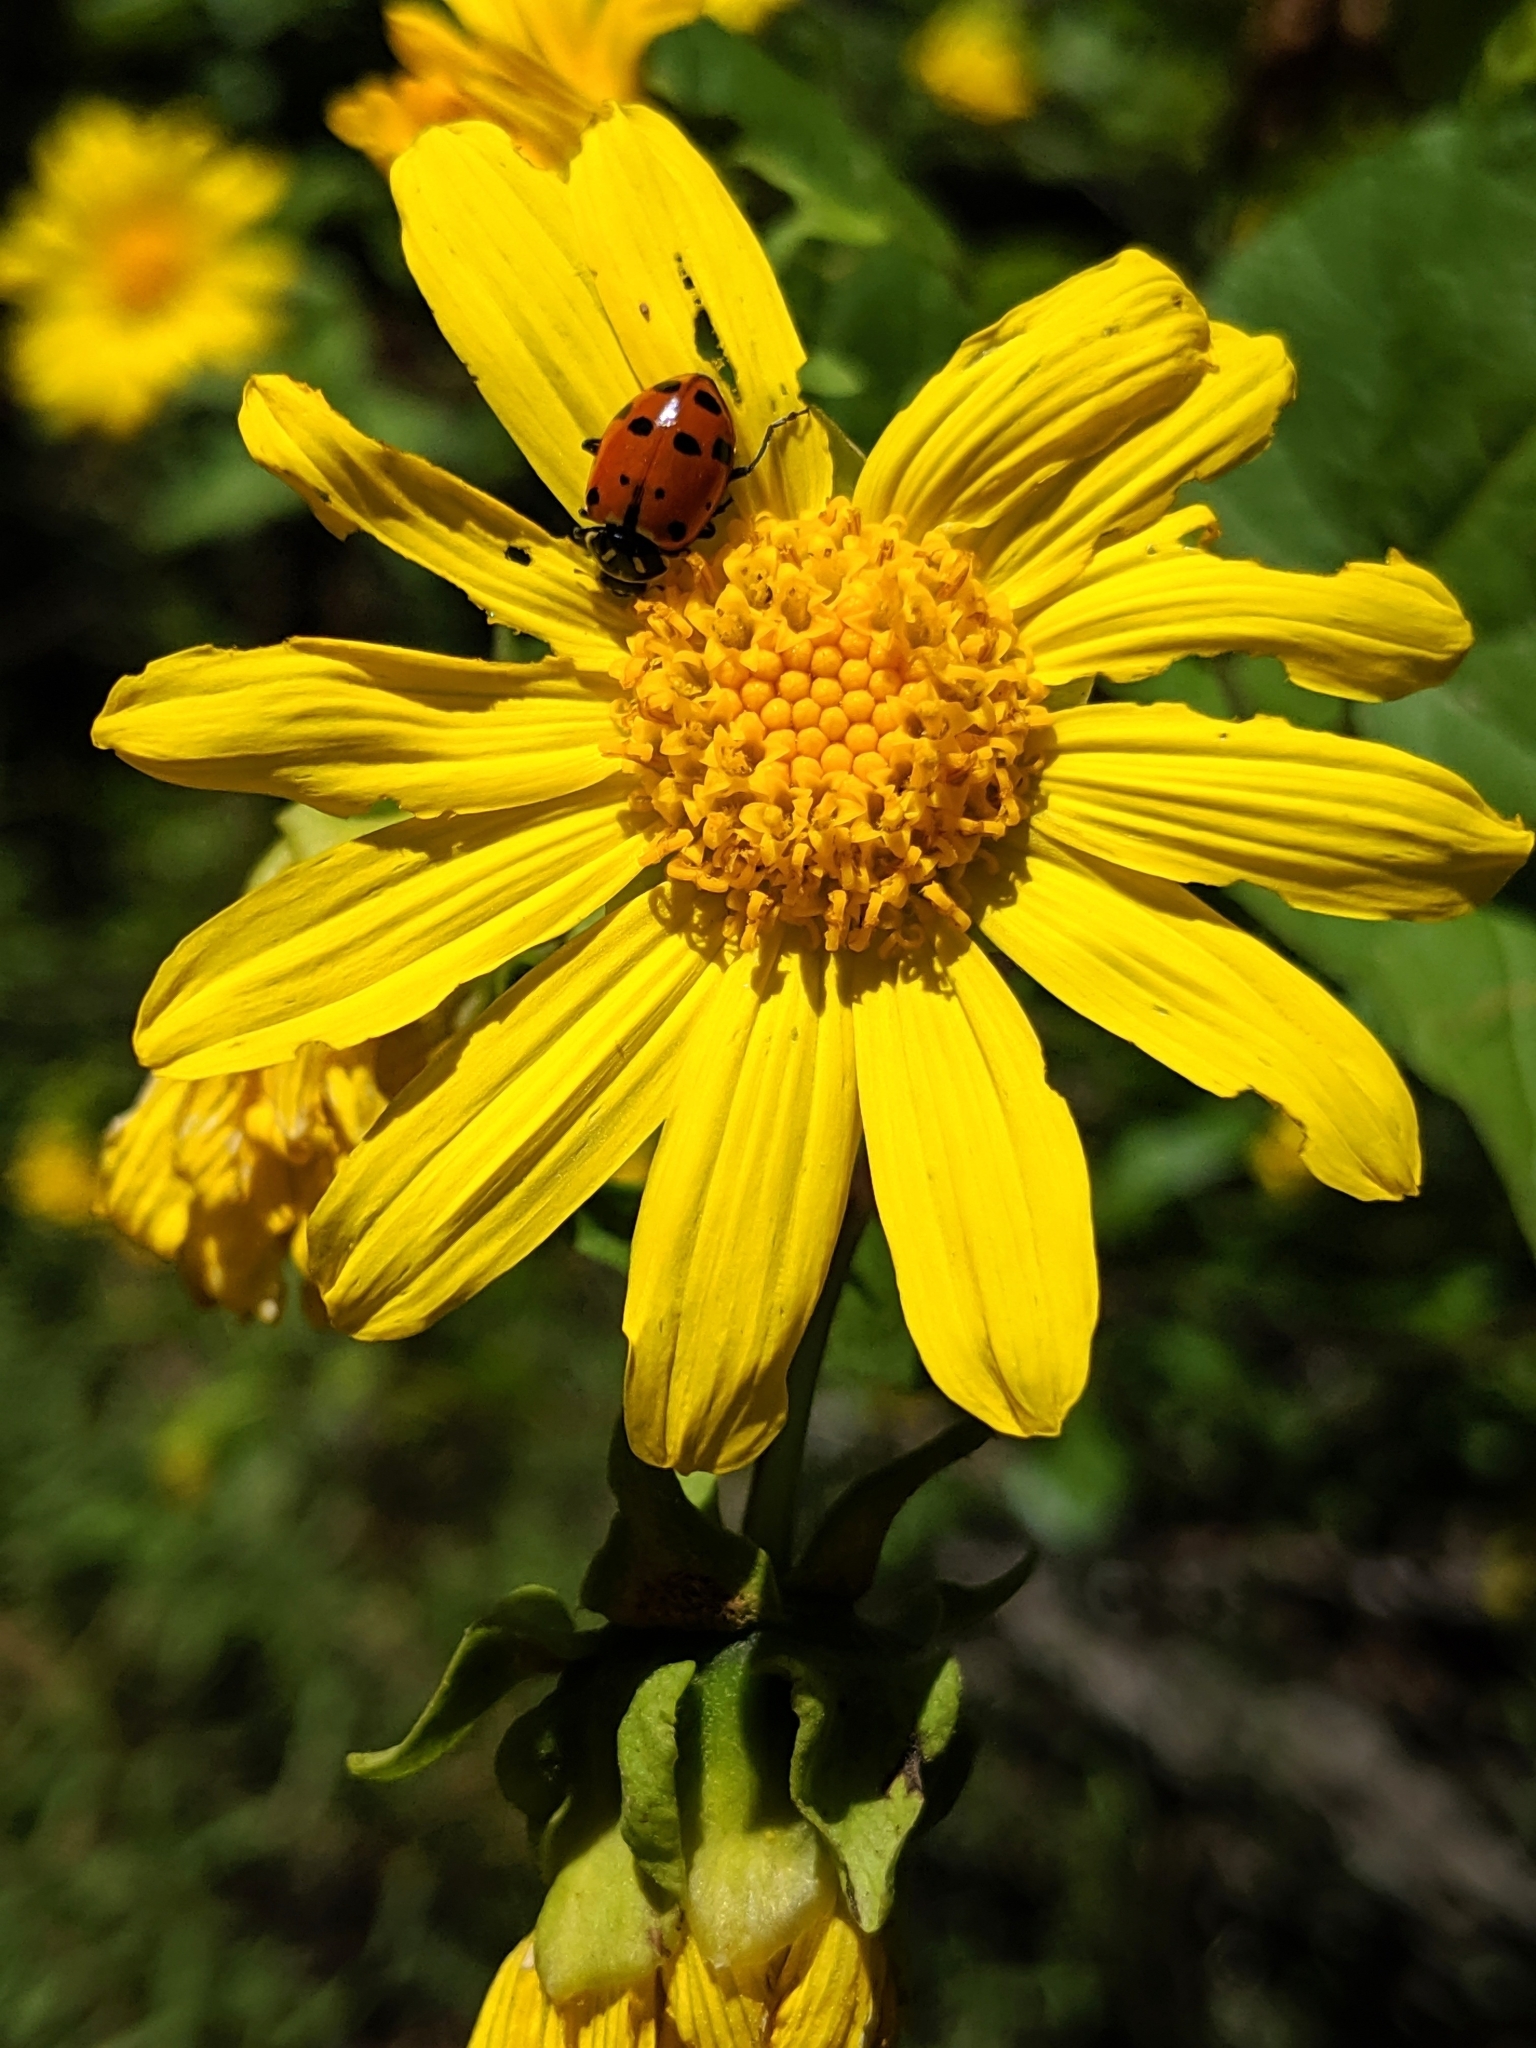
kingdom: Plantae
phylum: Tracheophyta
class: Magnoliopsida
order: Asterales
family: Asteraceae
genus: Venegasia
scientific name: Venegasia carpesioides
